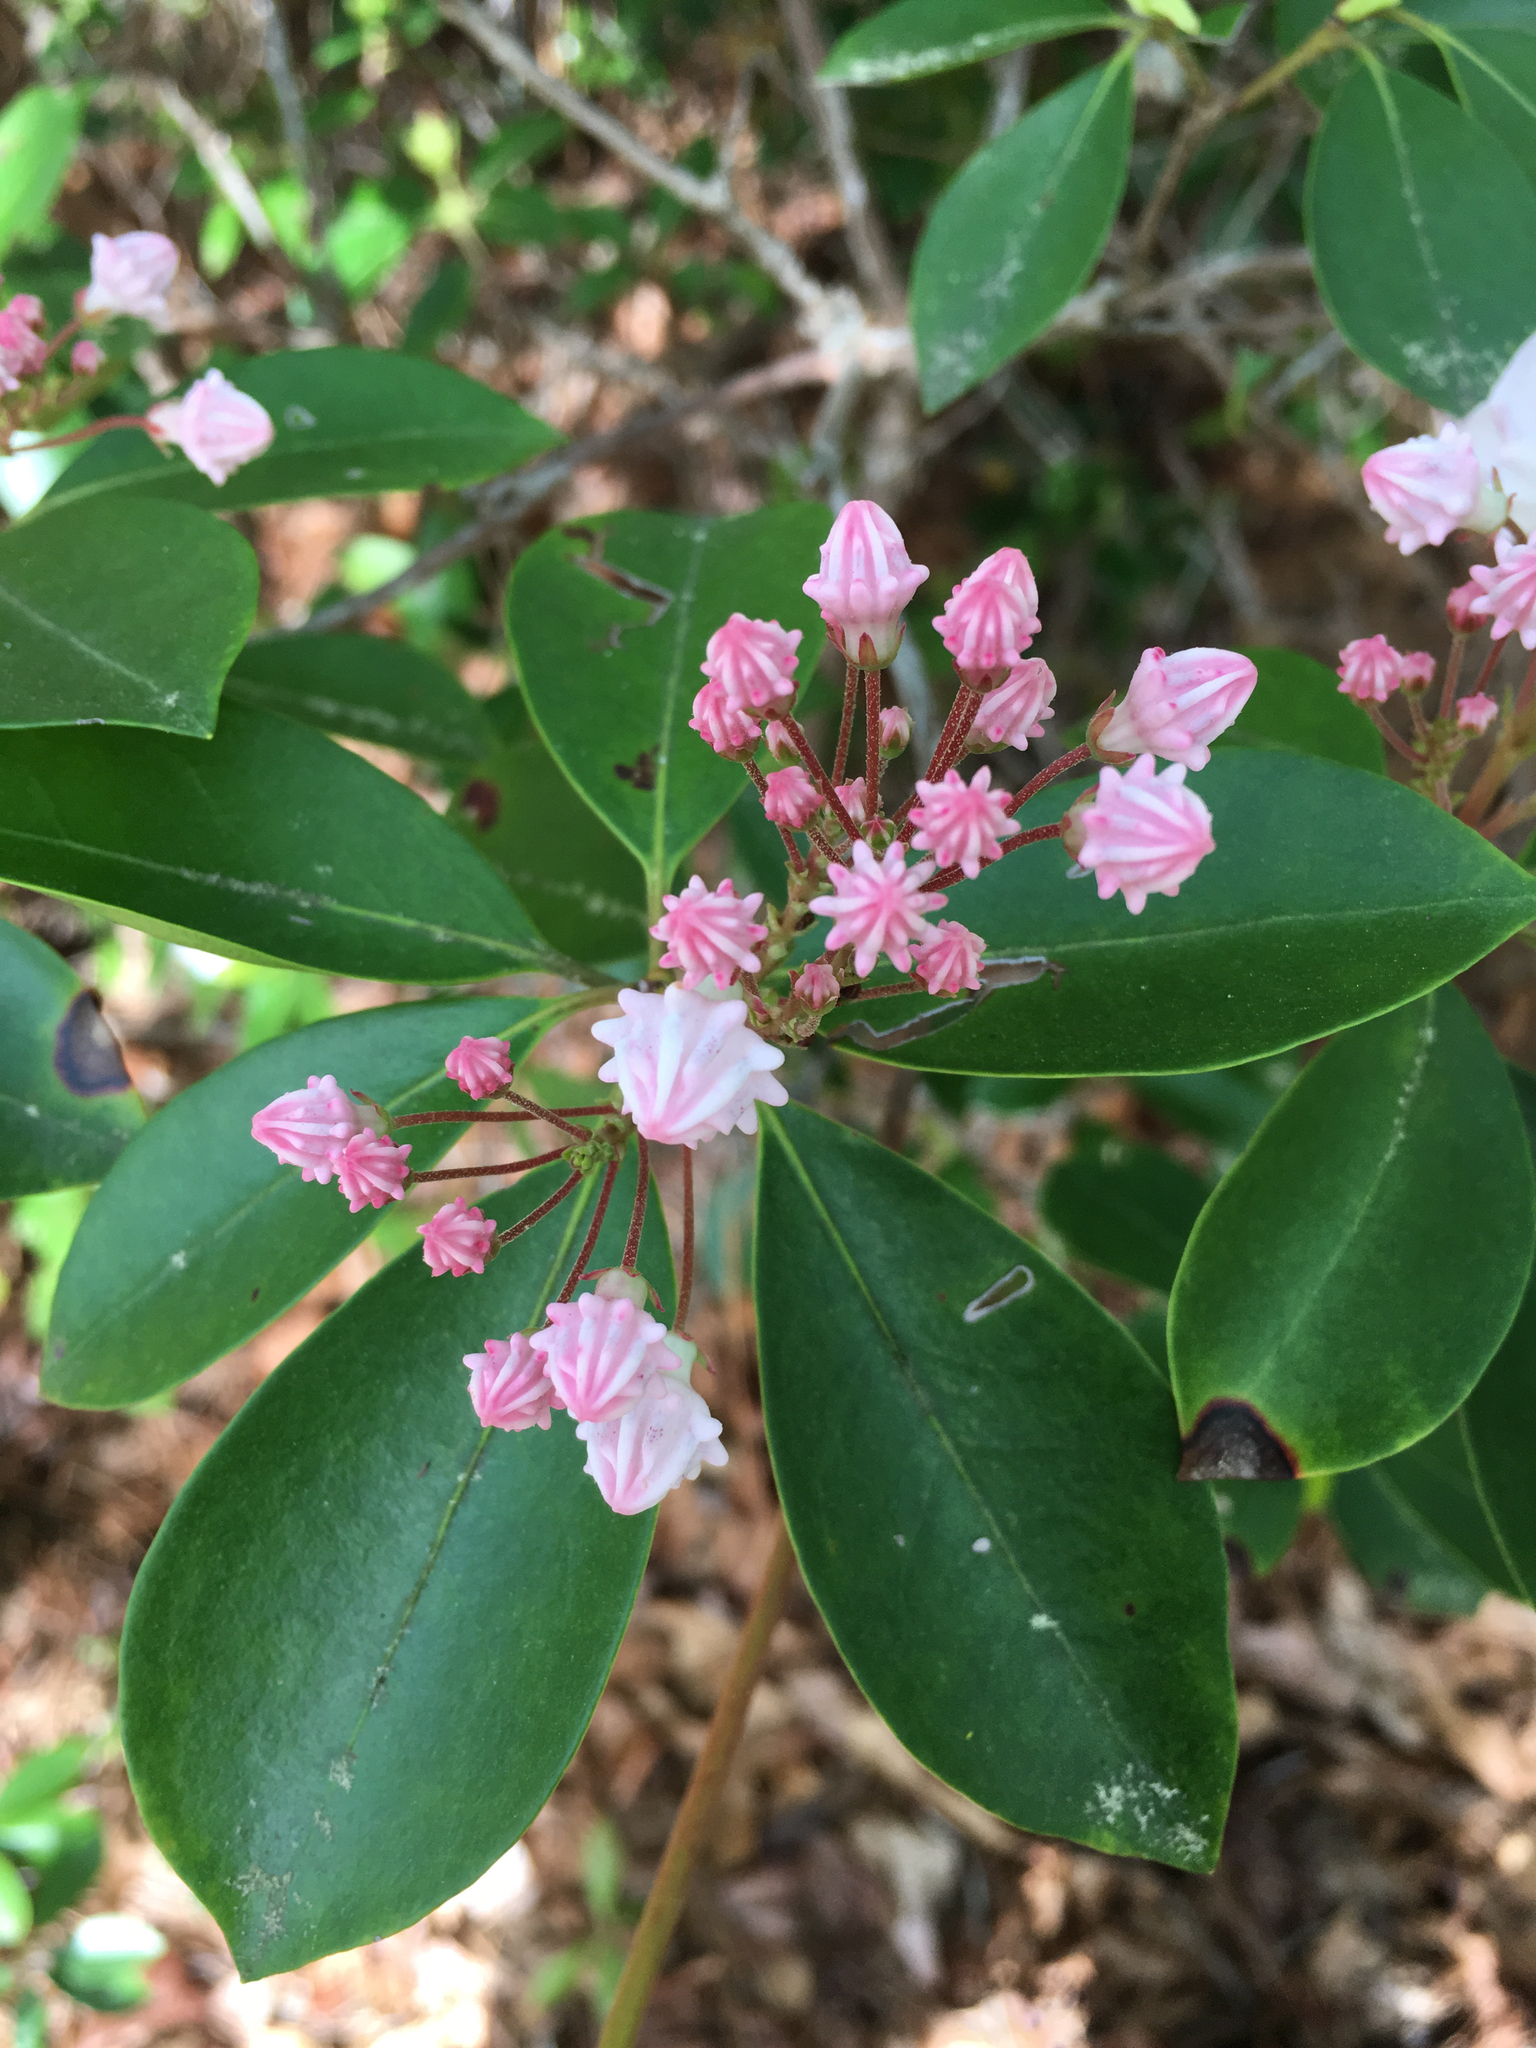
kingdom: Plantae
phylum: Tracheophyta
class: Magnoliopsida
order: Ericales
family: Ericaceae
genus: Kalmia
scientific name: Kalmia latifolia
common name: Mountain-laurel
